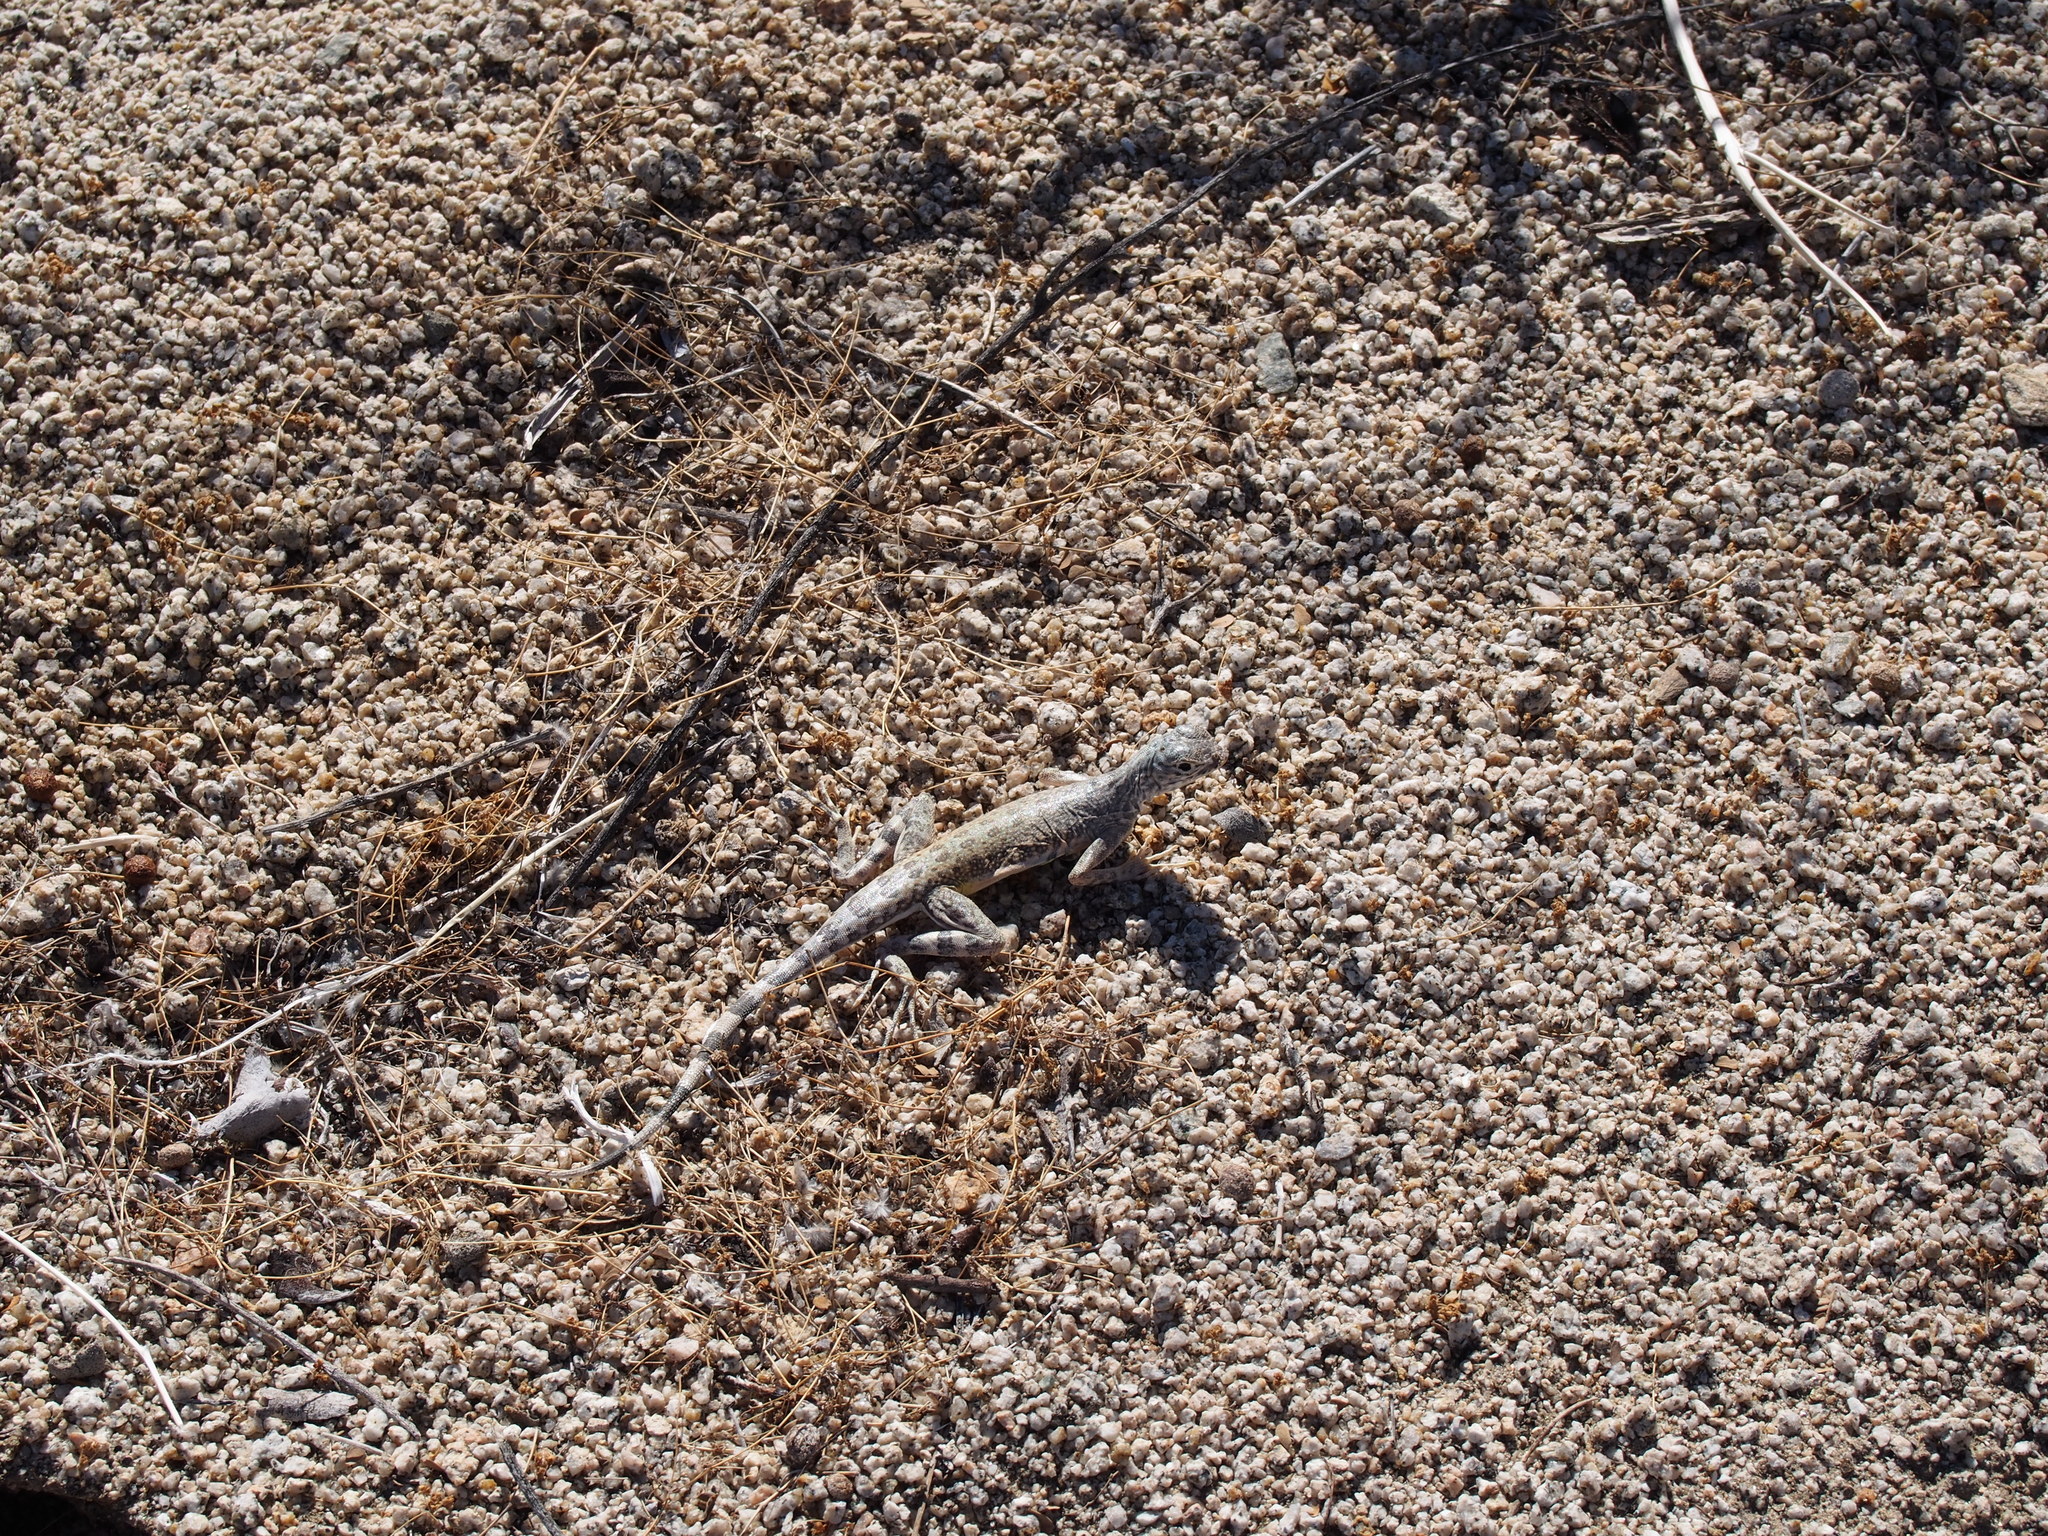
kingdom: Animalia
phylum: Chordata
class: Squamata
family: Phrynosomatidae
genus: Callisaurus
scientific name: Callisaurus draconoides
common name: Zebra-tailed lizard
